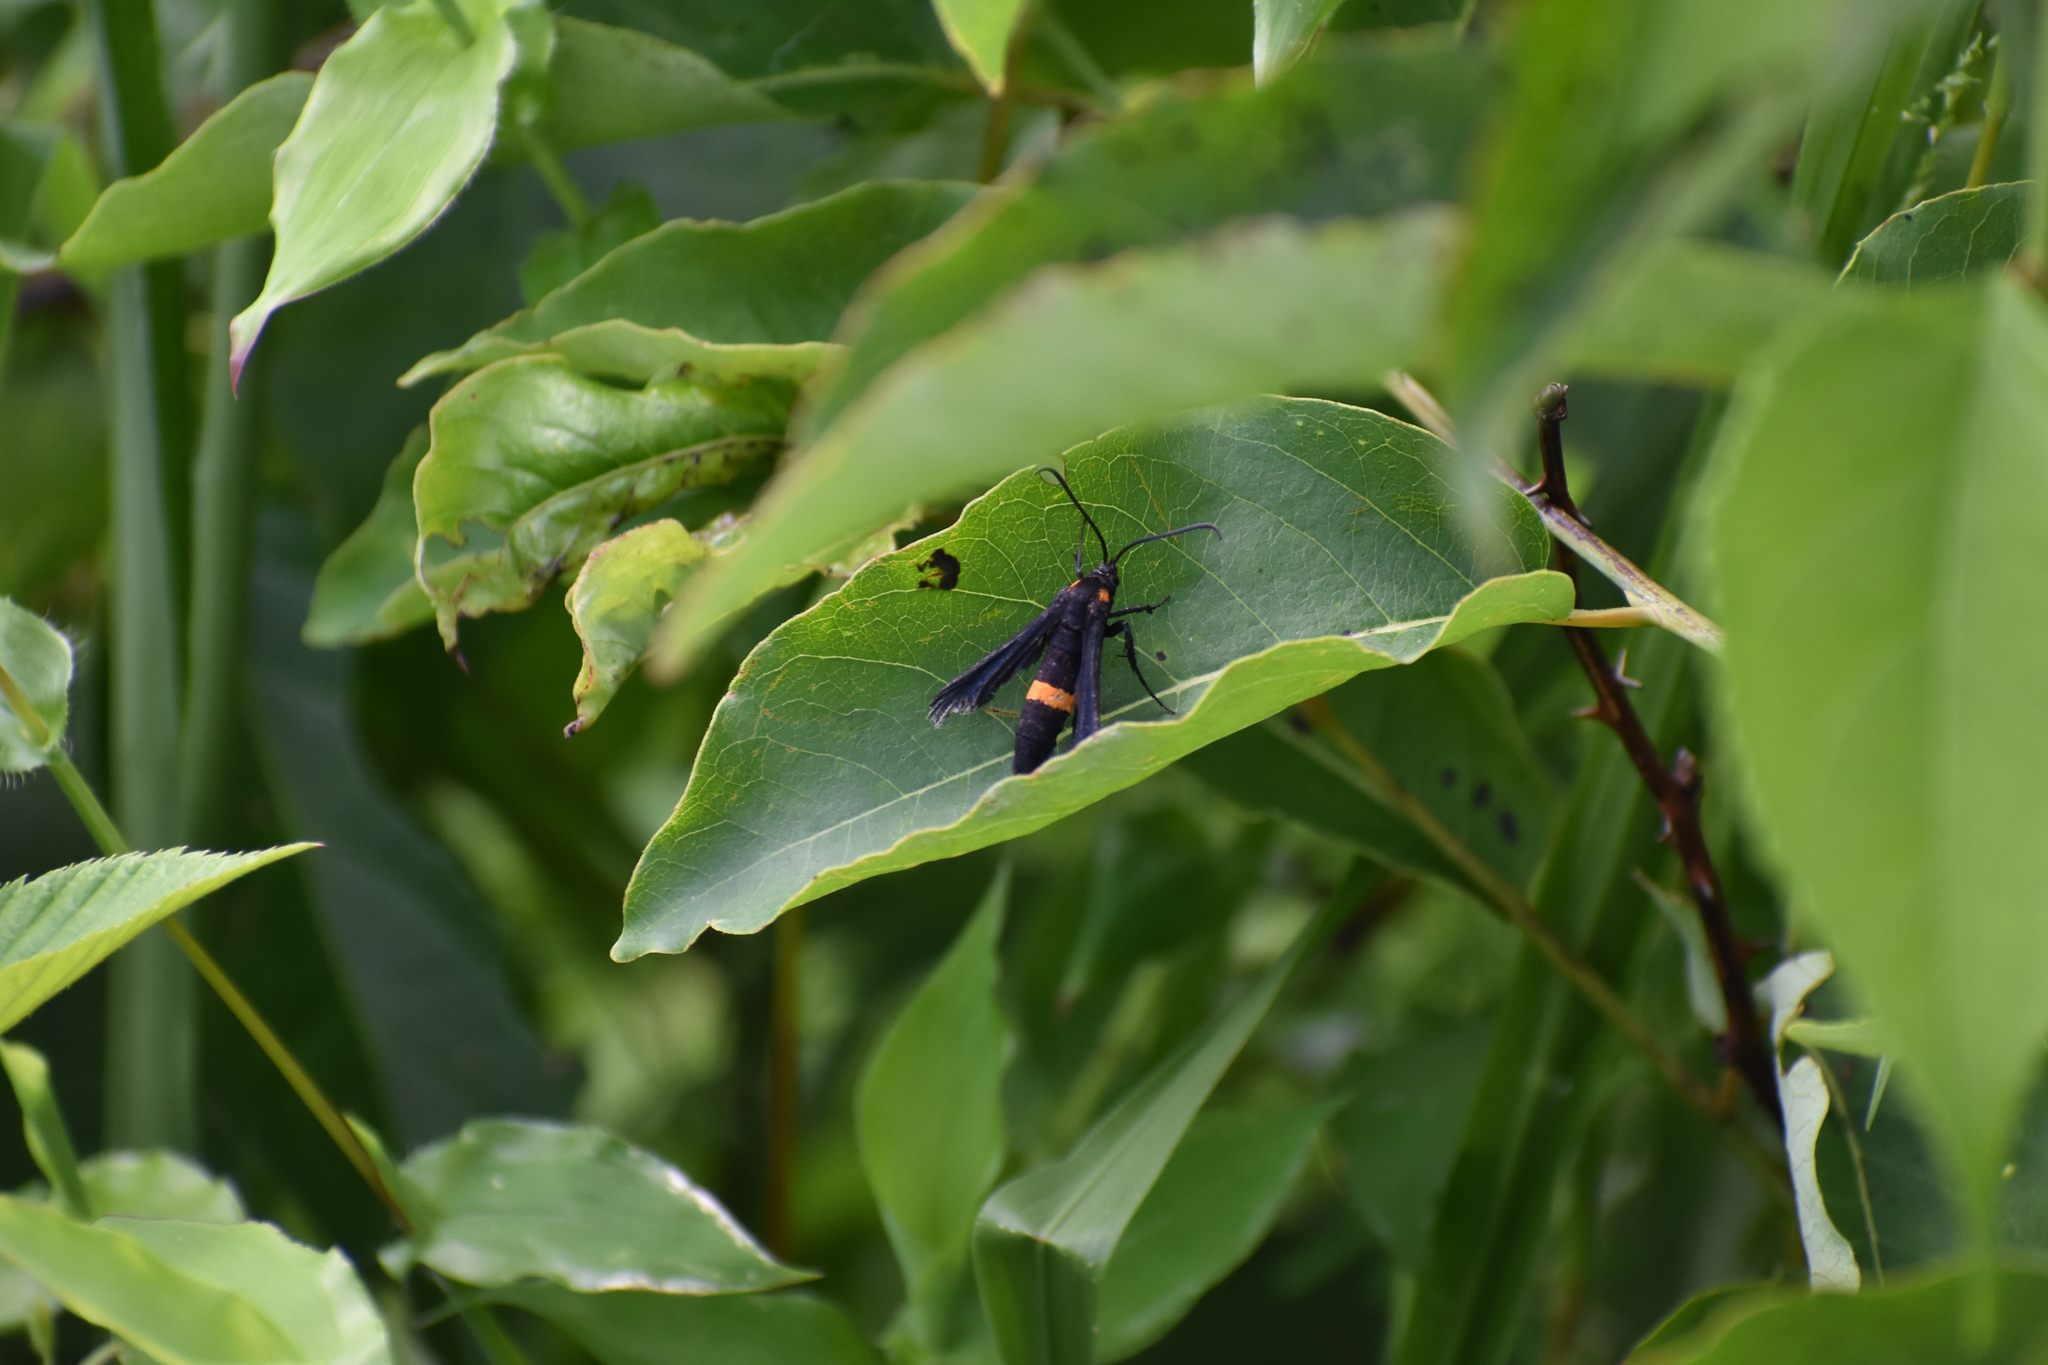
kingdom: Animalia
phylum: Arthropoda
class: Insecta
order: Lepidoptera
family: Sesiidae
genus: Sannina
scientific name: Sannina uroceriformis
